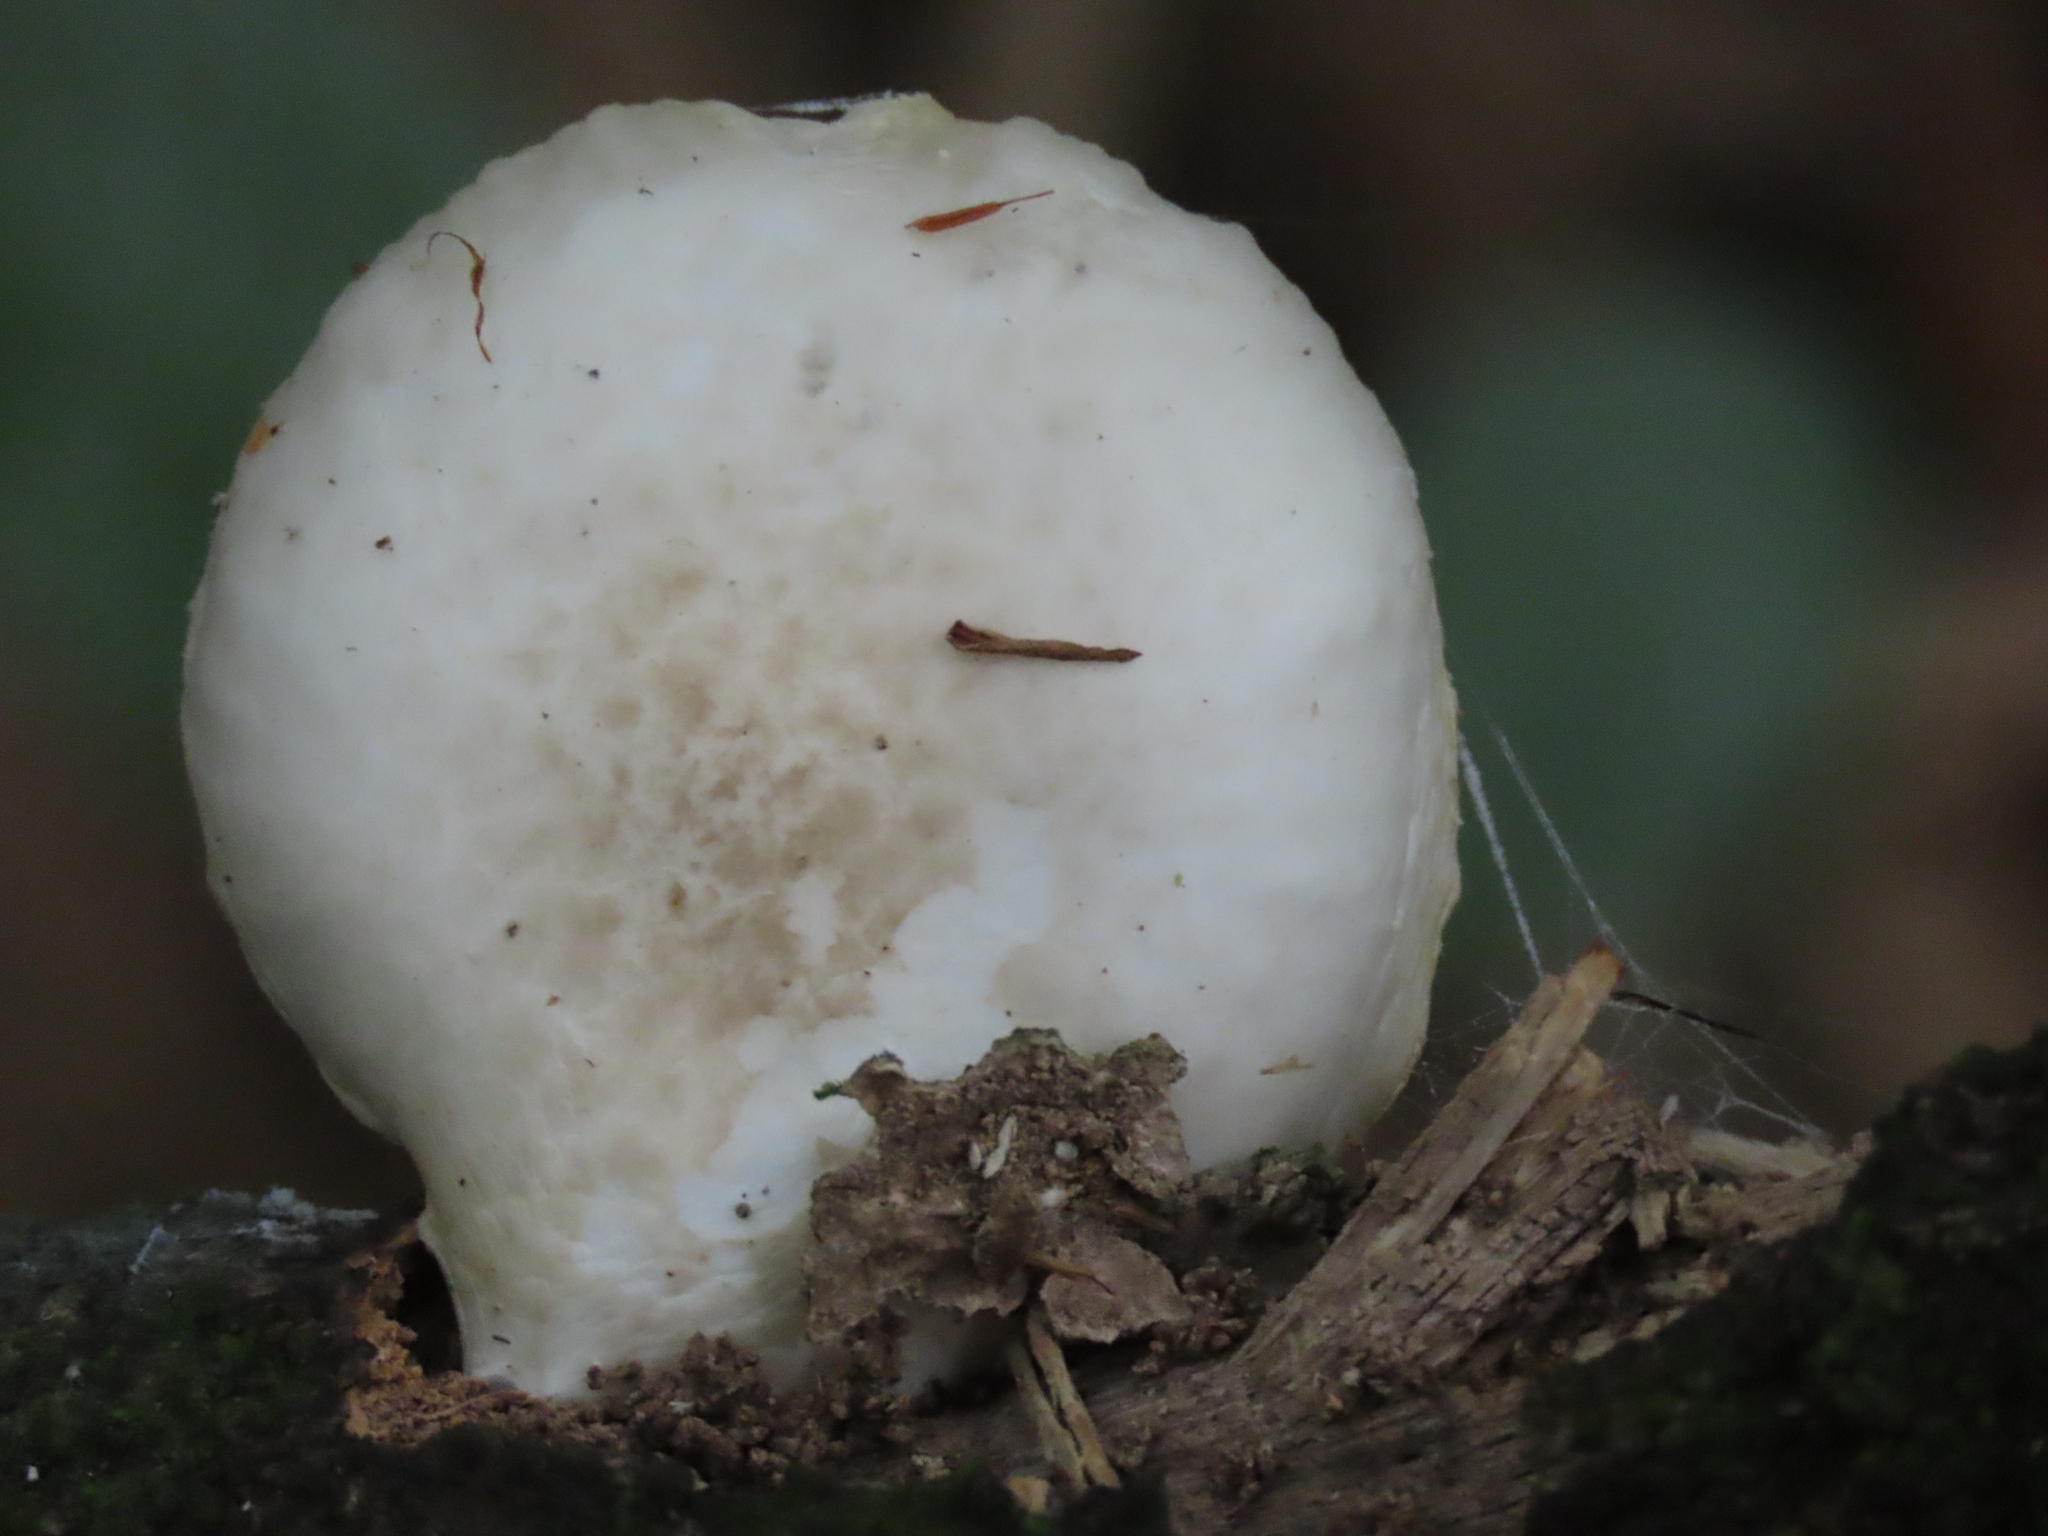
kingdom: Fungi
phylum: Basidiomycota
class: Agaricomycetes
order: Agaricales
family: Physalacriaceae
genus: Oudemansiella
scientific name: Oudemansiella australis
